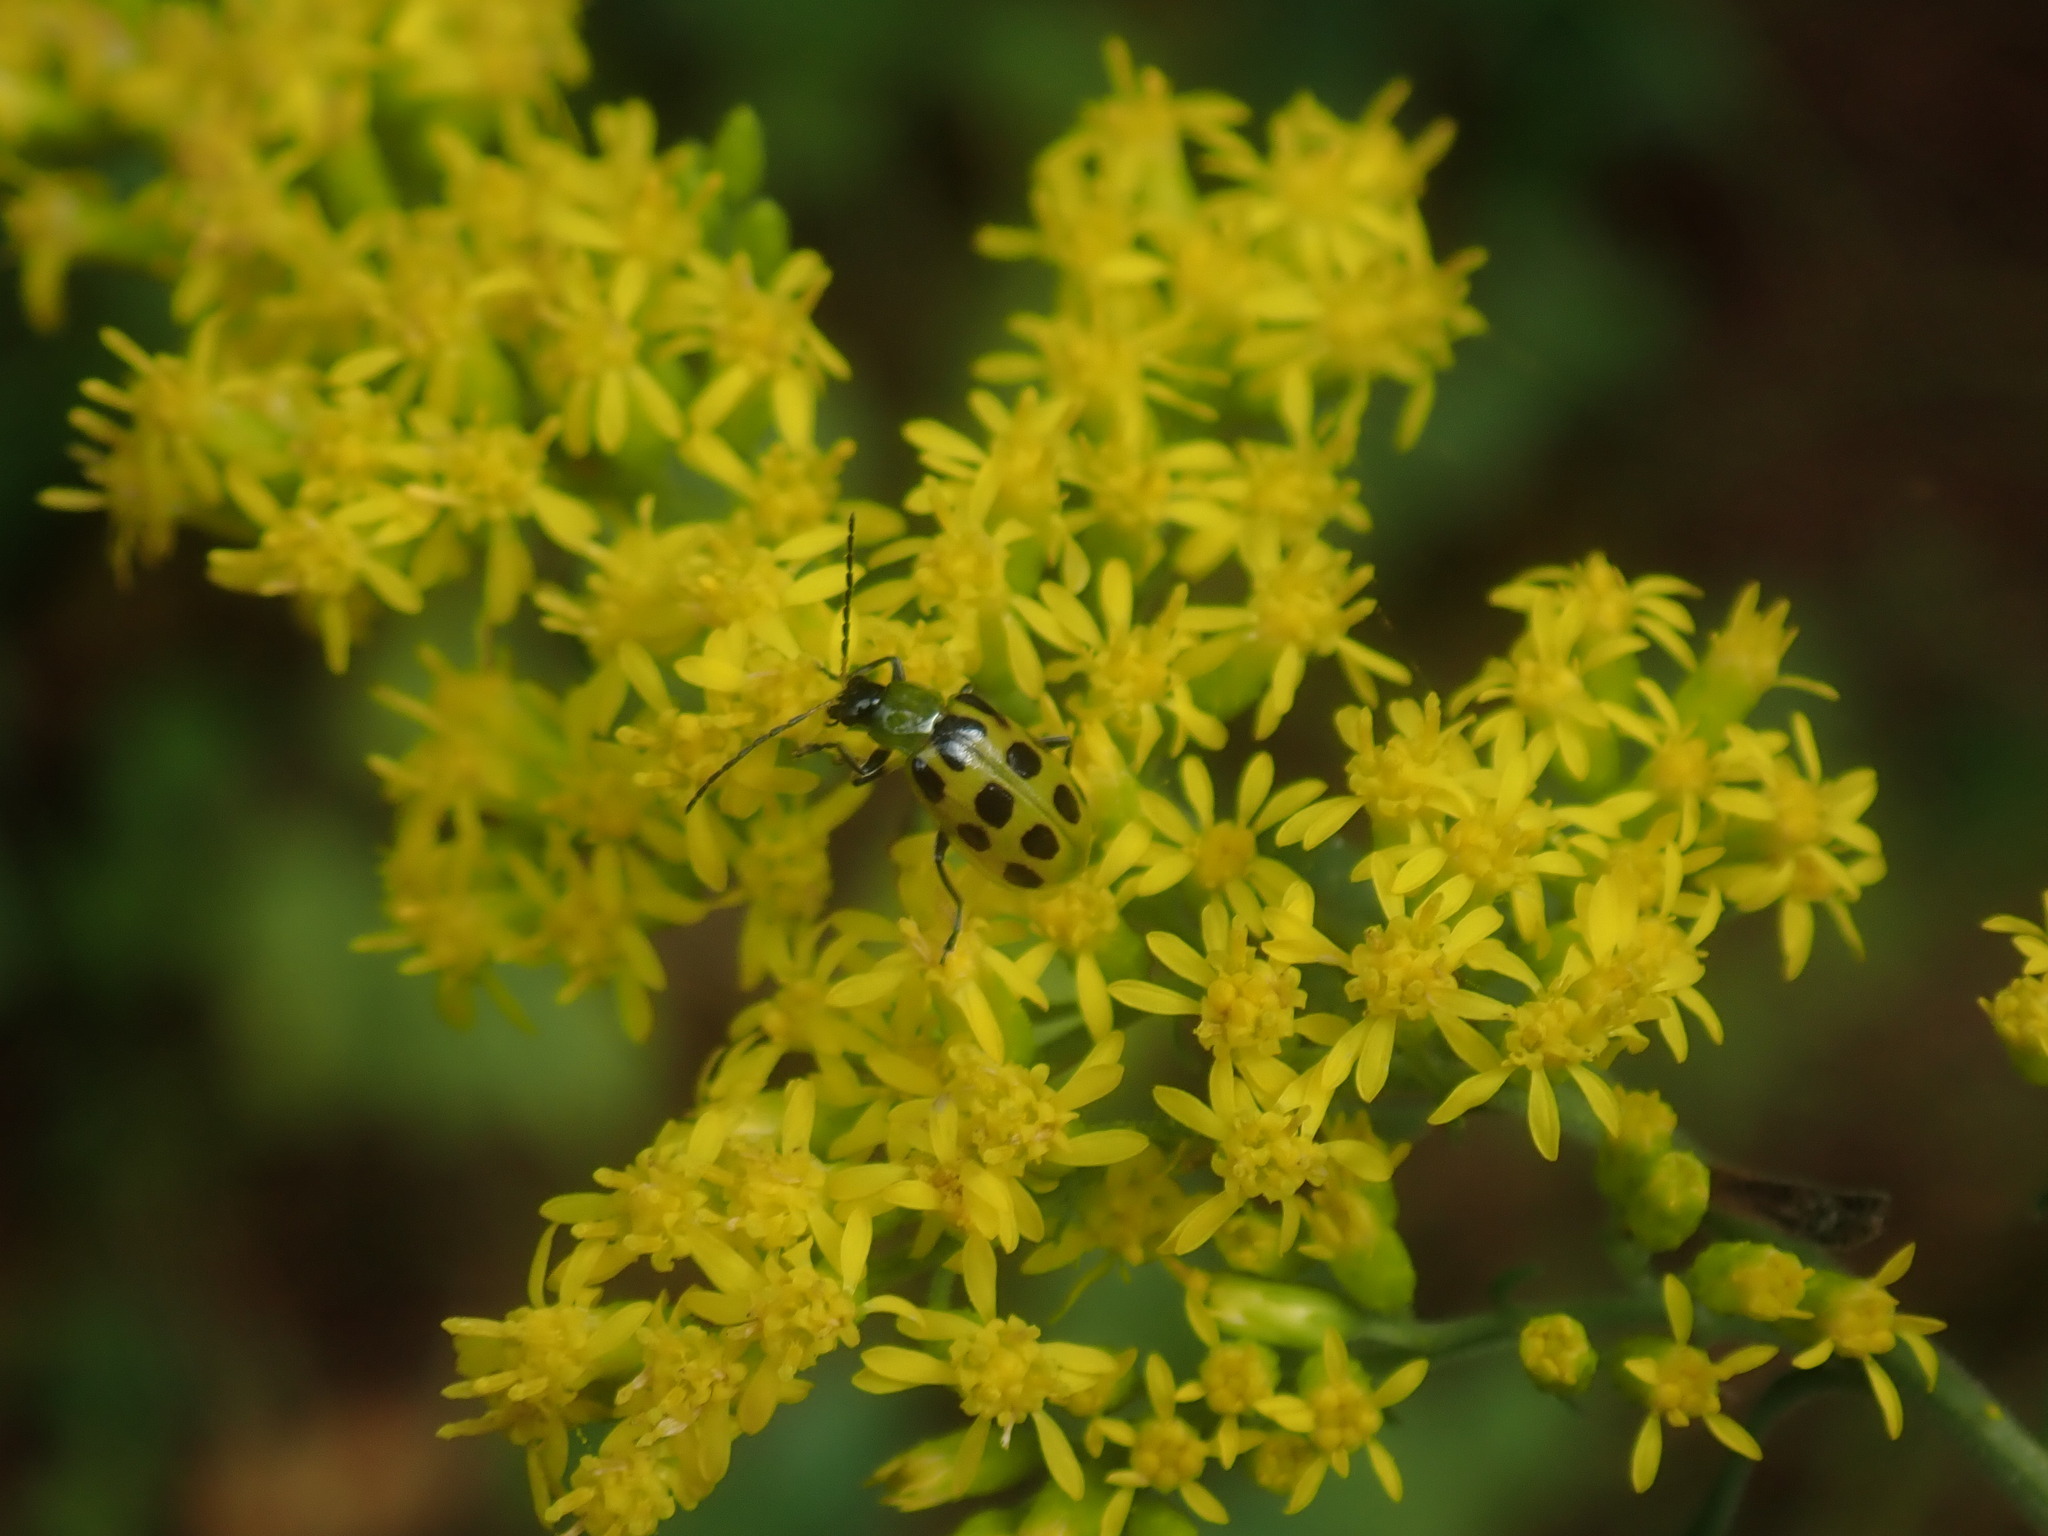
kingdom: Animalia
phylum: Arthropoda
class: Insecta
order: Coleoptera
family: Chrysomelidae
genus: Diabrotica
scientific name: Diabrotica undecimpunctata
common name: Spotted cucumber beetle
